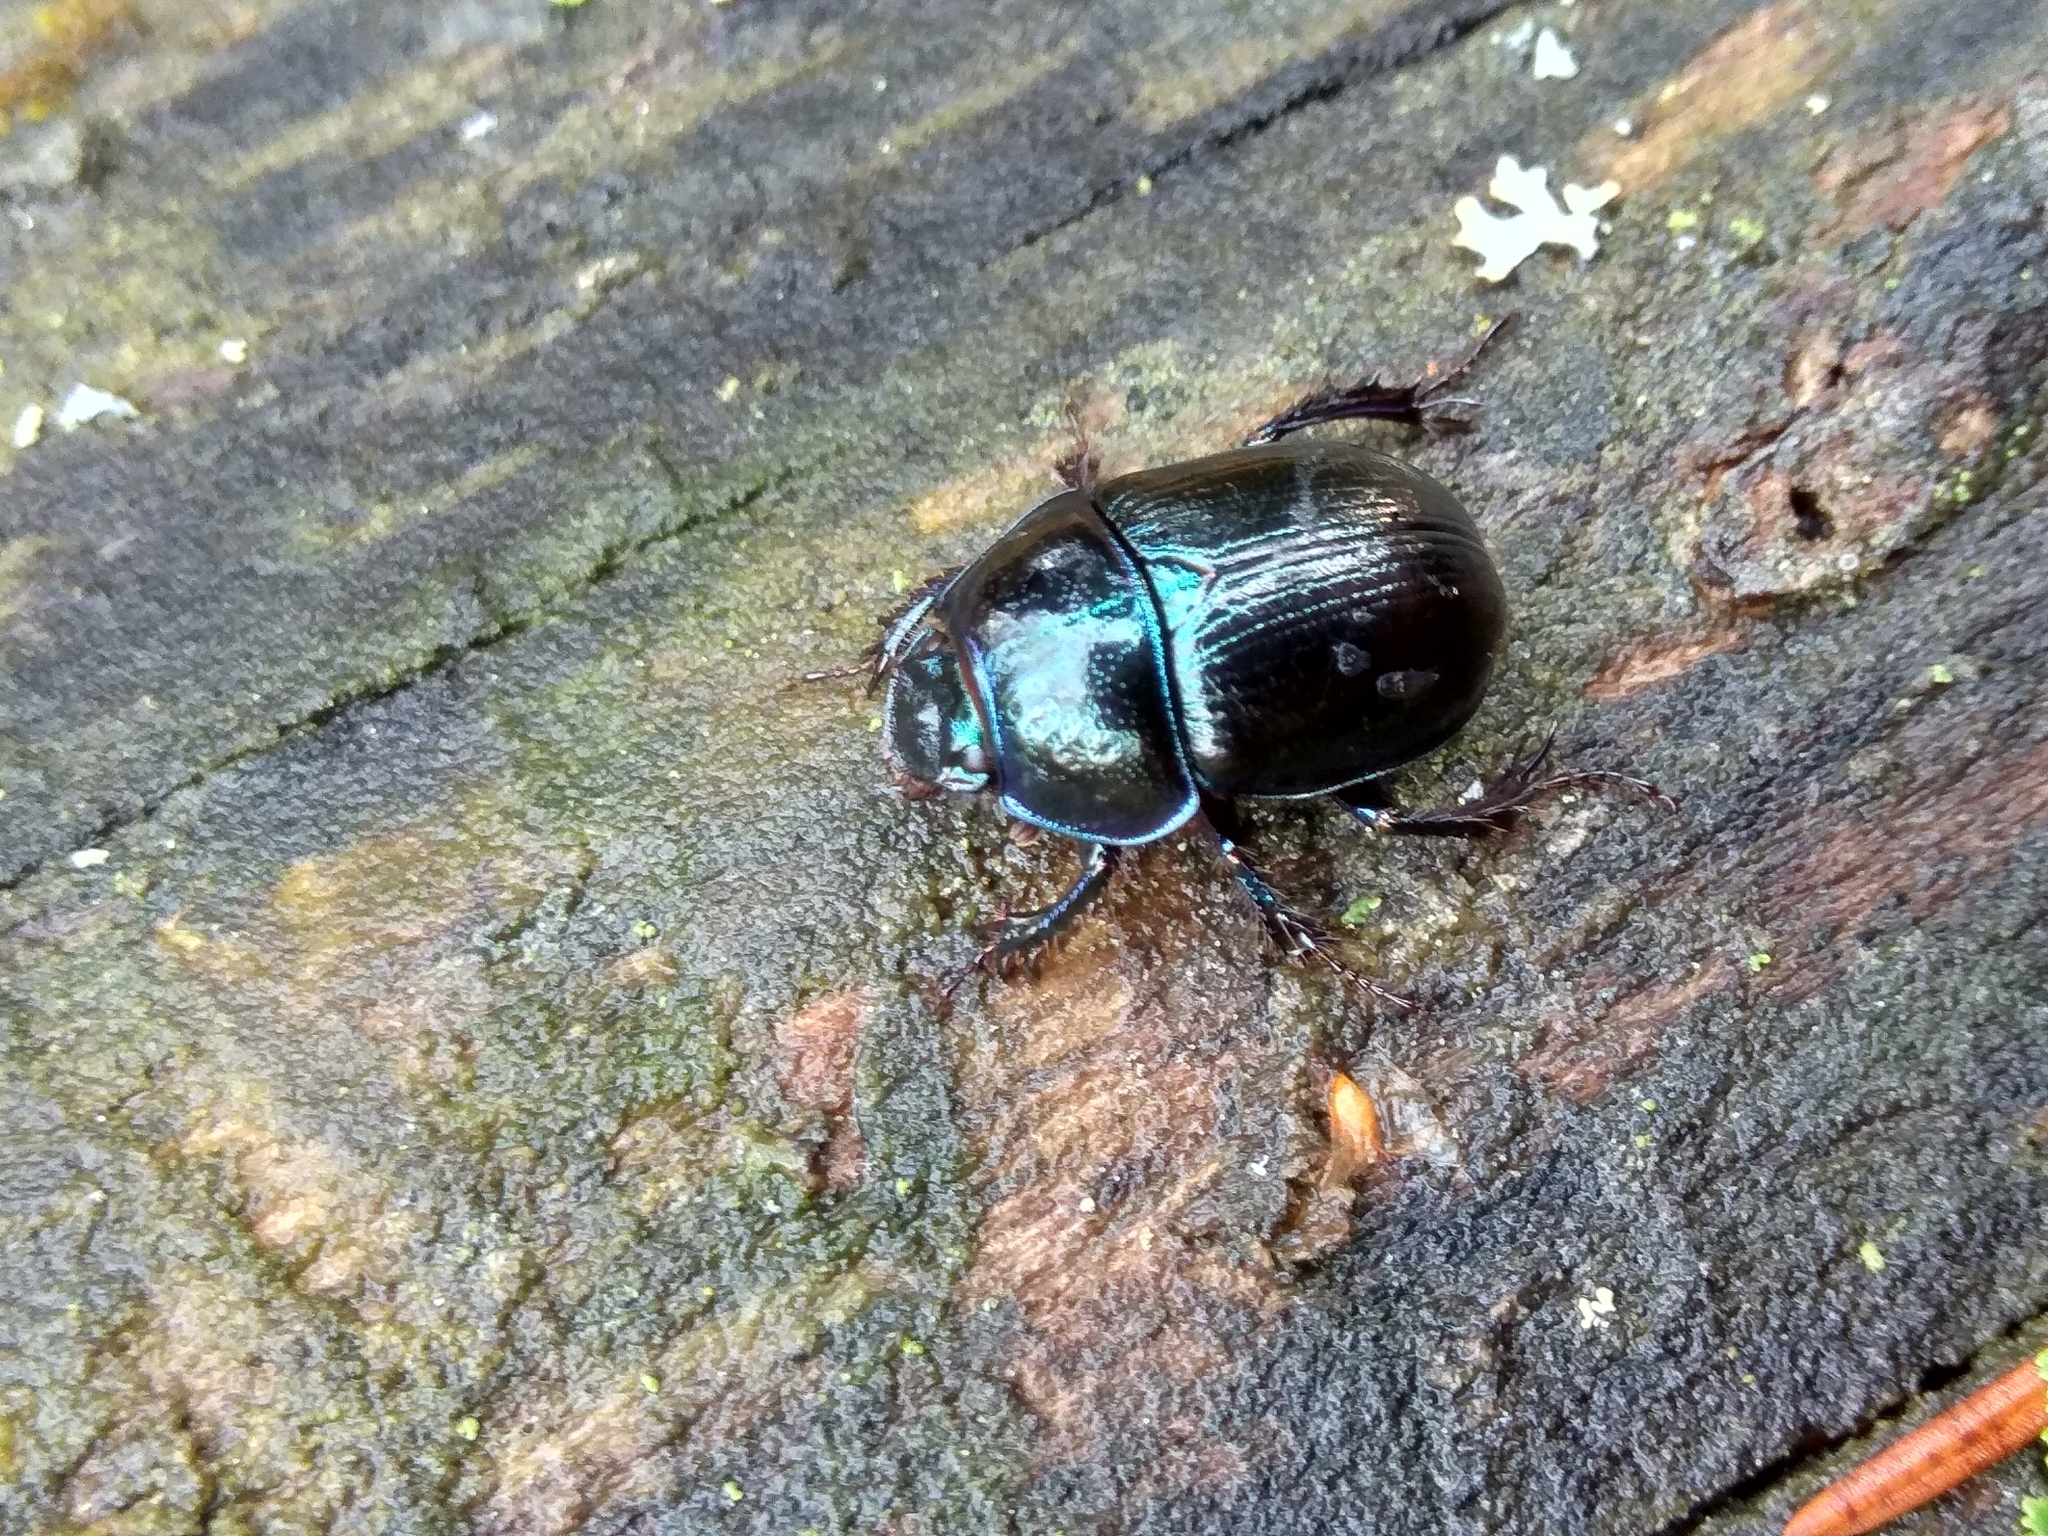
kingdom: Animalia
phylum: Arthropoda
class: Insecta
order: Coleoptera
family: Geotrupidae
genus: Anoplotrupes
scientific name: Anoplotrupes stercorosus
